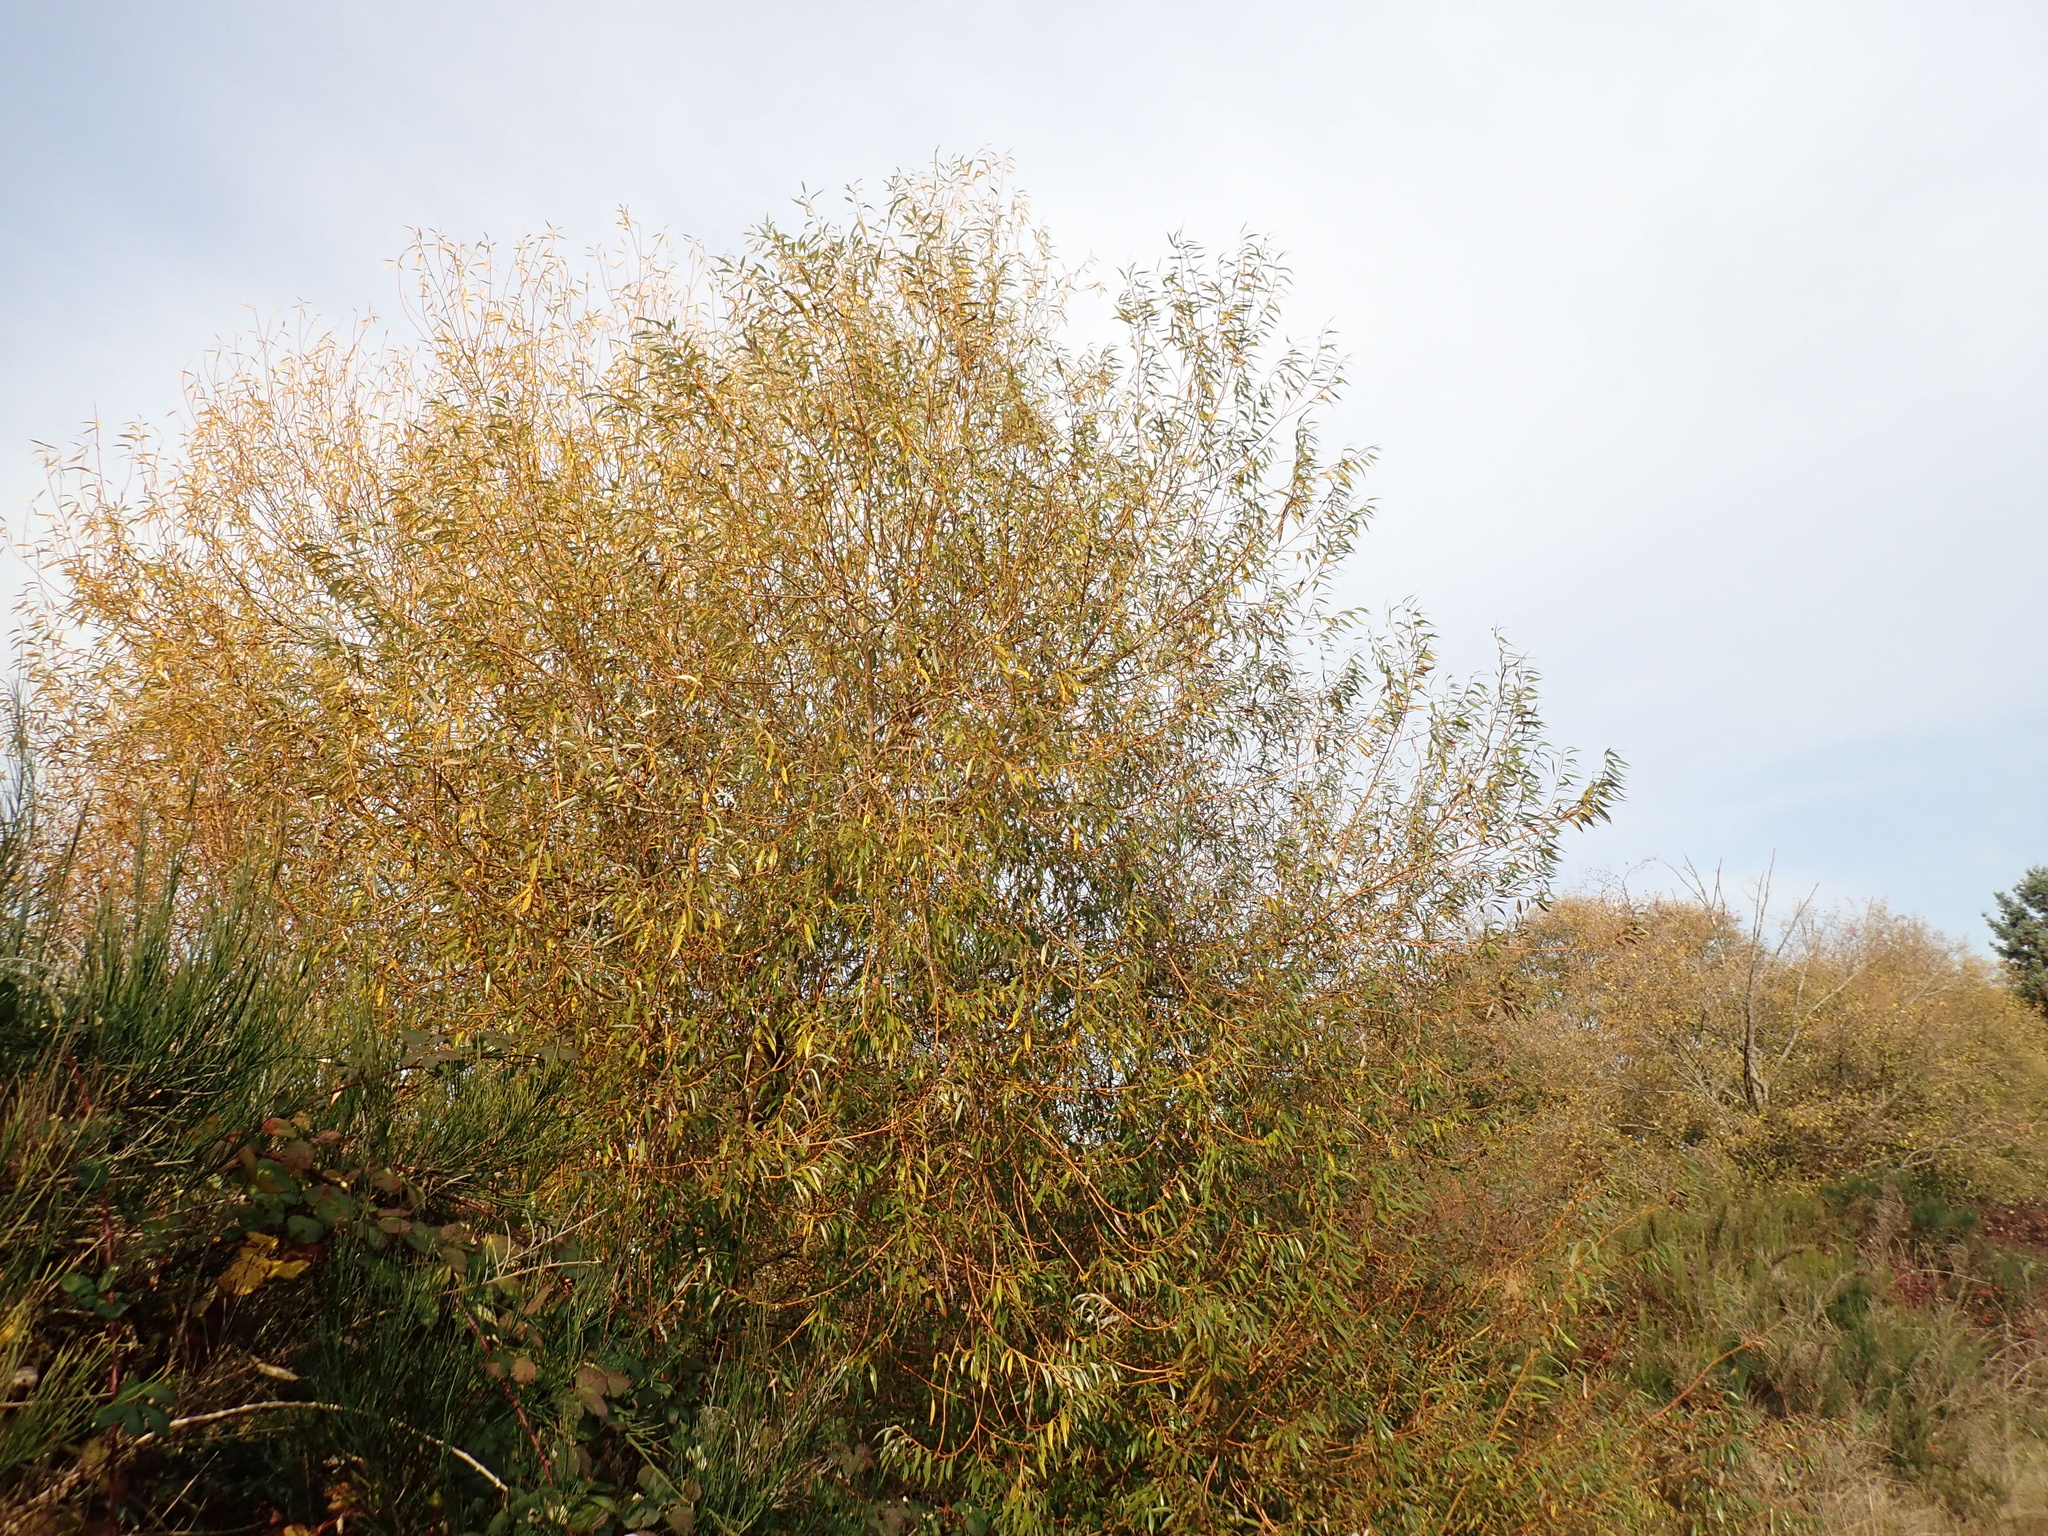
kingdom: Plantae
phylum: Tracheophyta
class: Magnoliopsida
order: Malpighiales
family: Salicaceae
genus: Salix
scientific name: Salix lucida
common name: Shining willow
